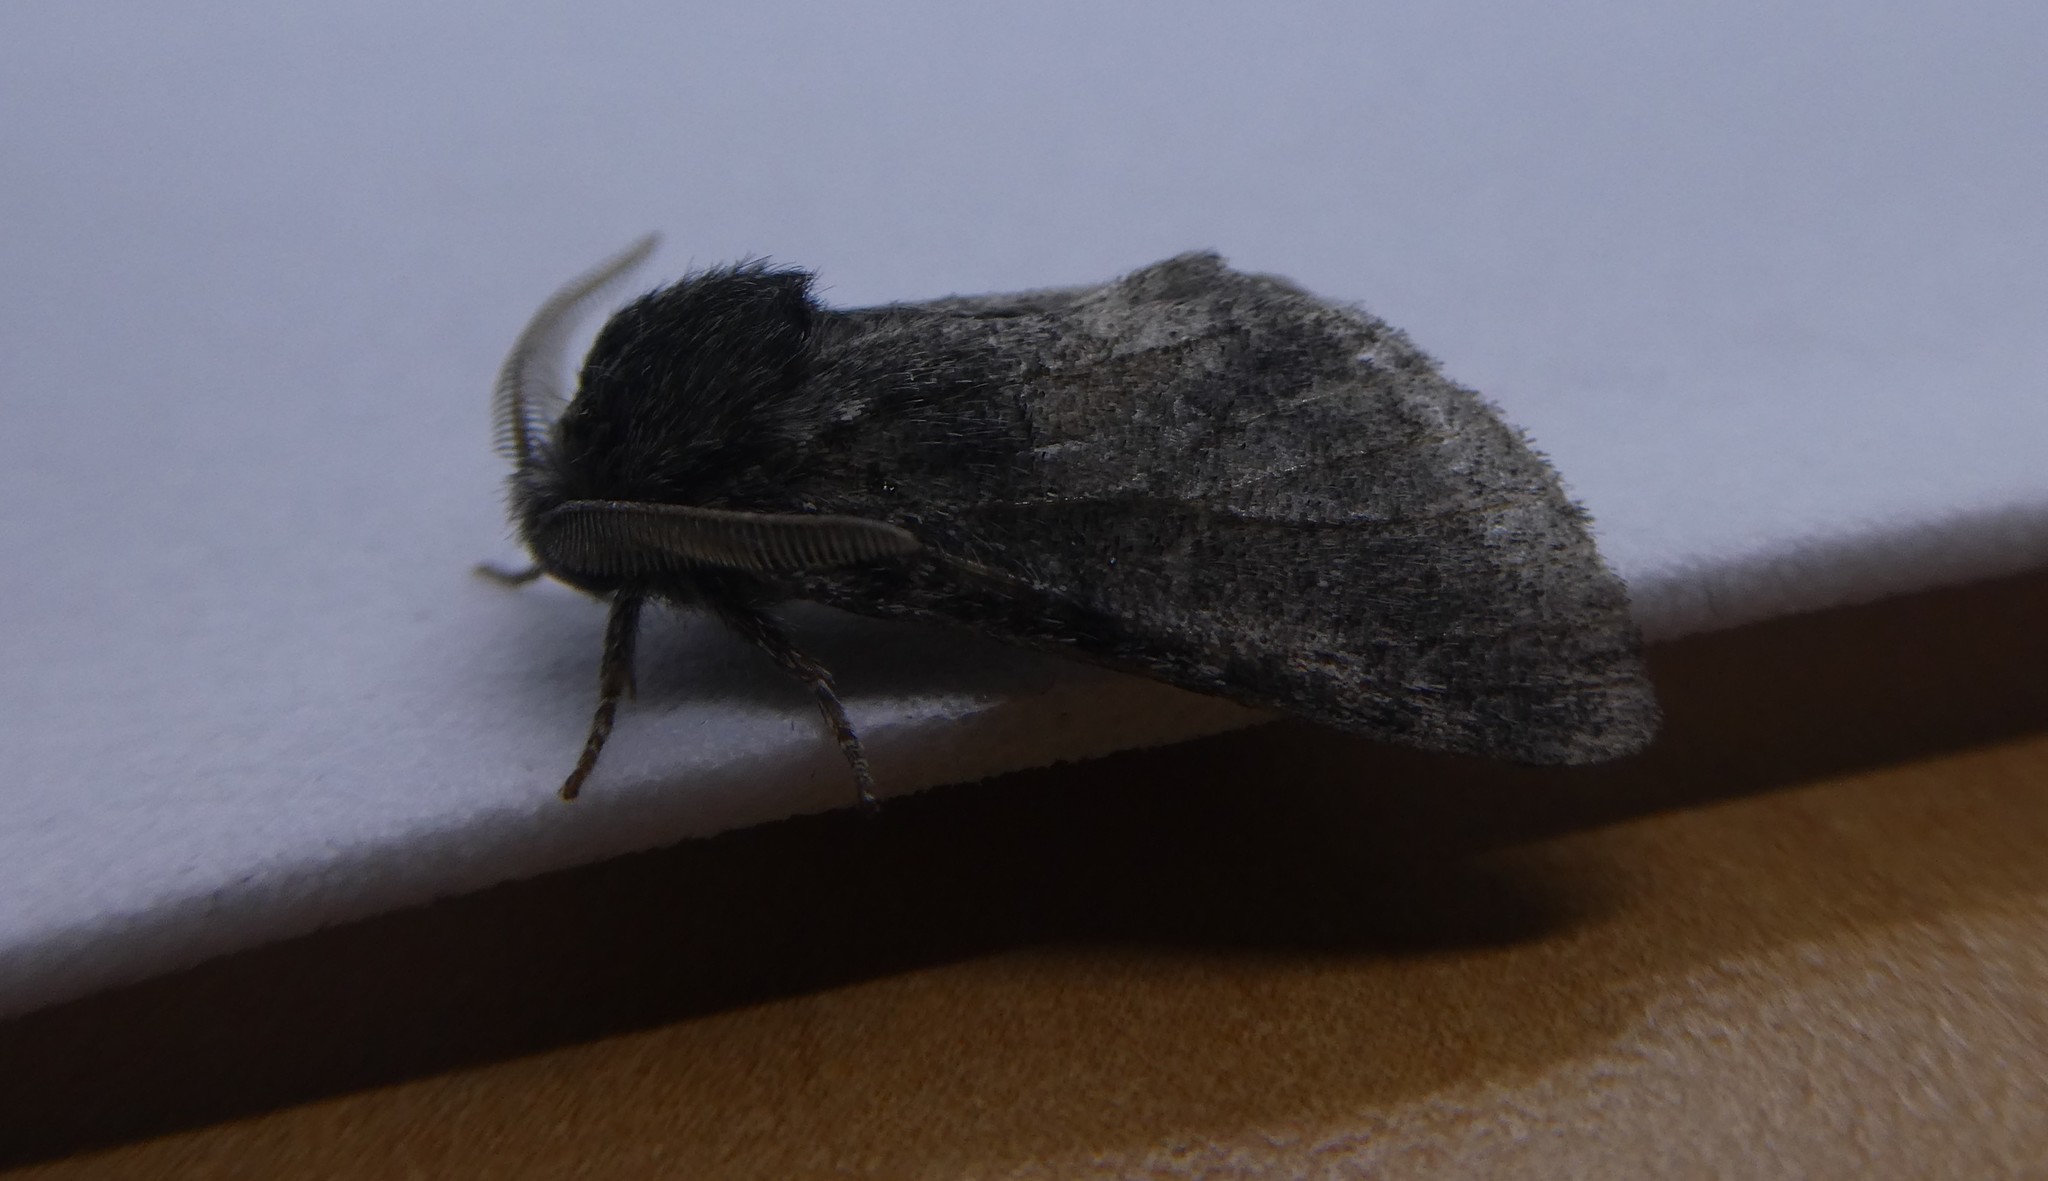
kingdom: Animalia
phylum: Arthropoda
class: Insecta
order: Lepidoptera
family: Notodontidae
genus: Gluphisia
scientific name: Gluphisia septentrionis
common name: Common gluphisia
